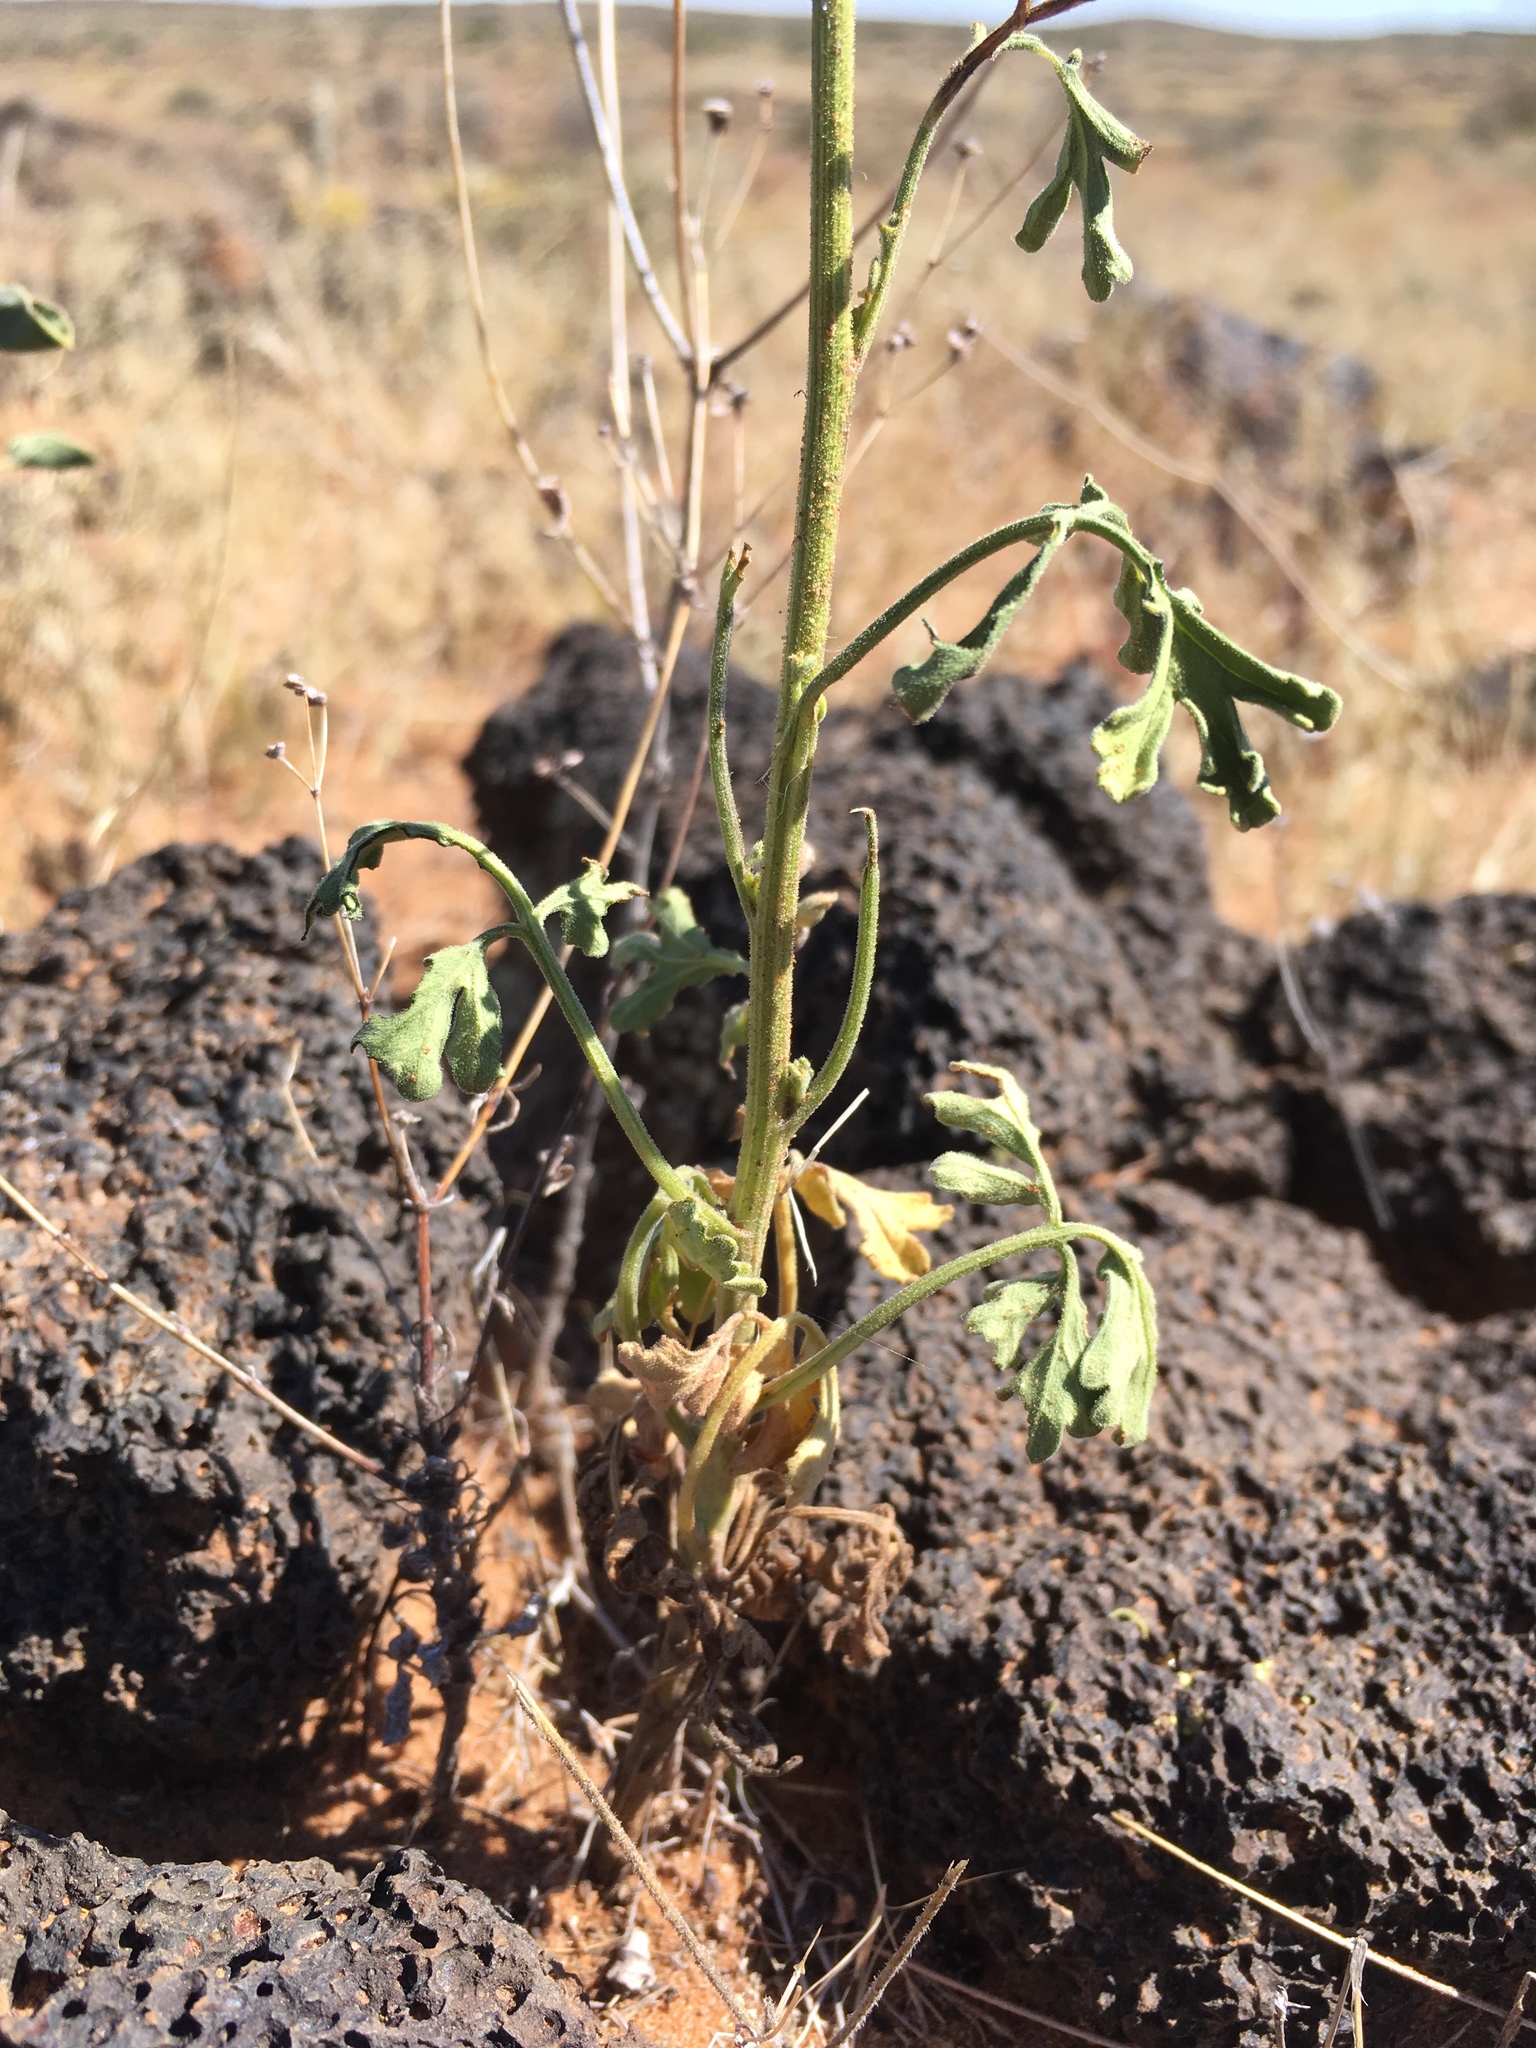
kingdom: Plantae
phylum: Tracheophyta
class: Magnoliopsida
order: Asterales
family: Asteraceae
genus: Hymenothrix
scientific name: Hymenothrix pedata
